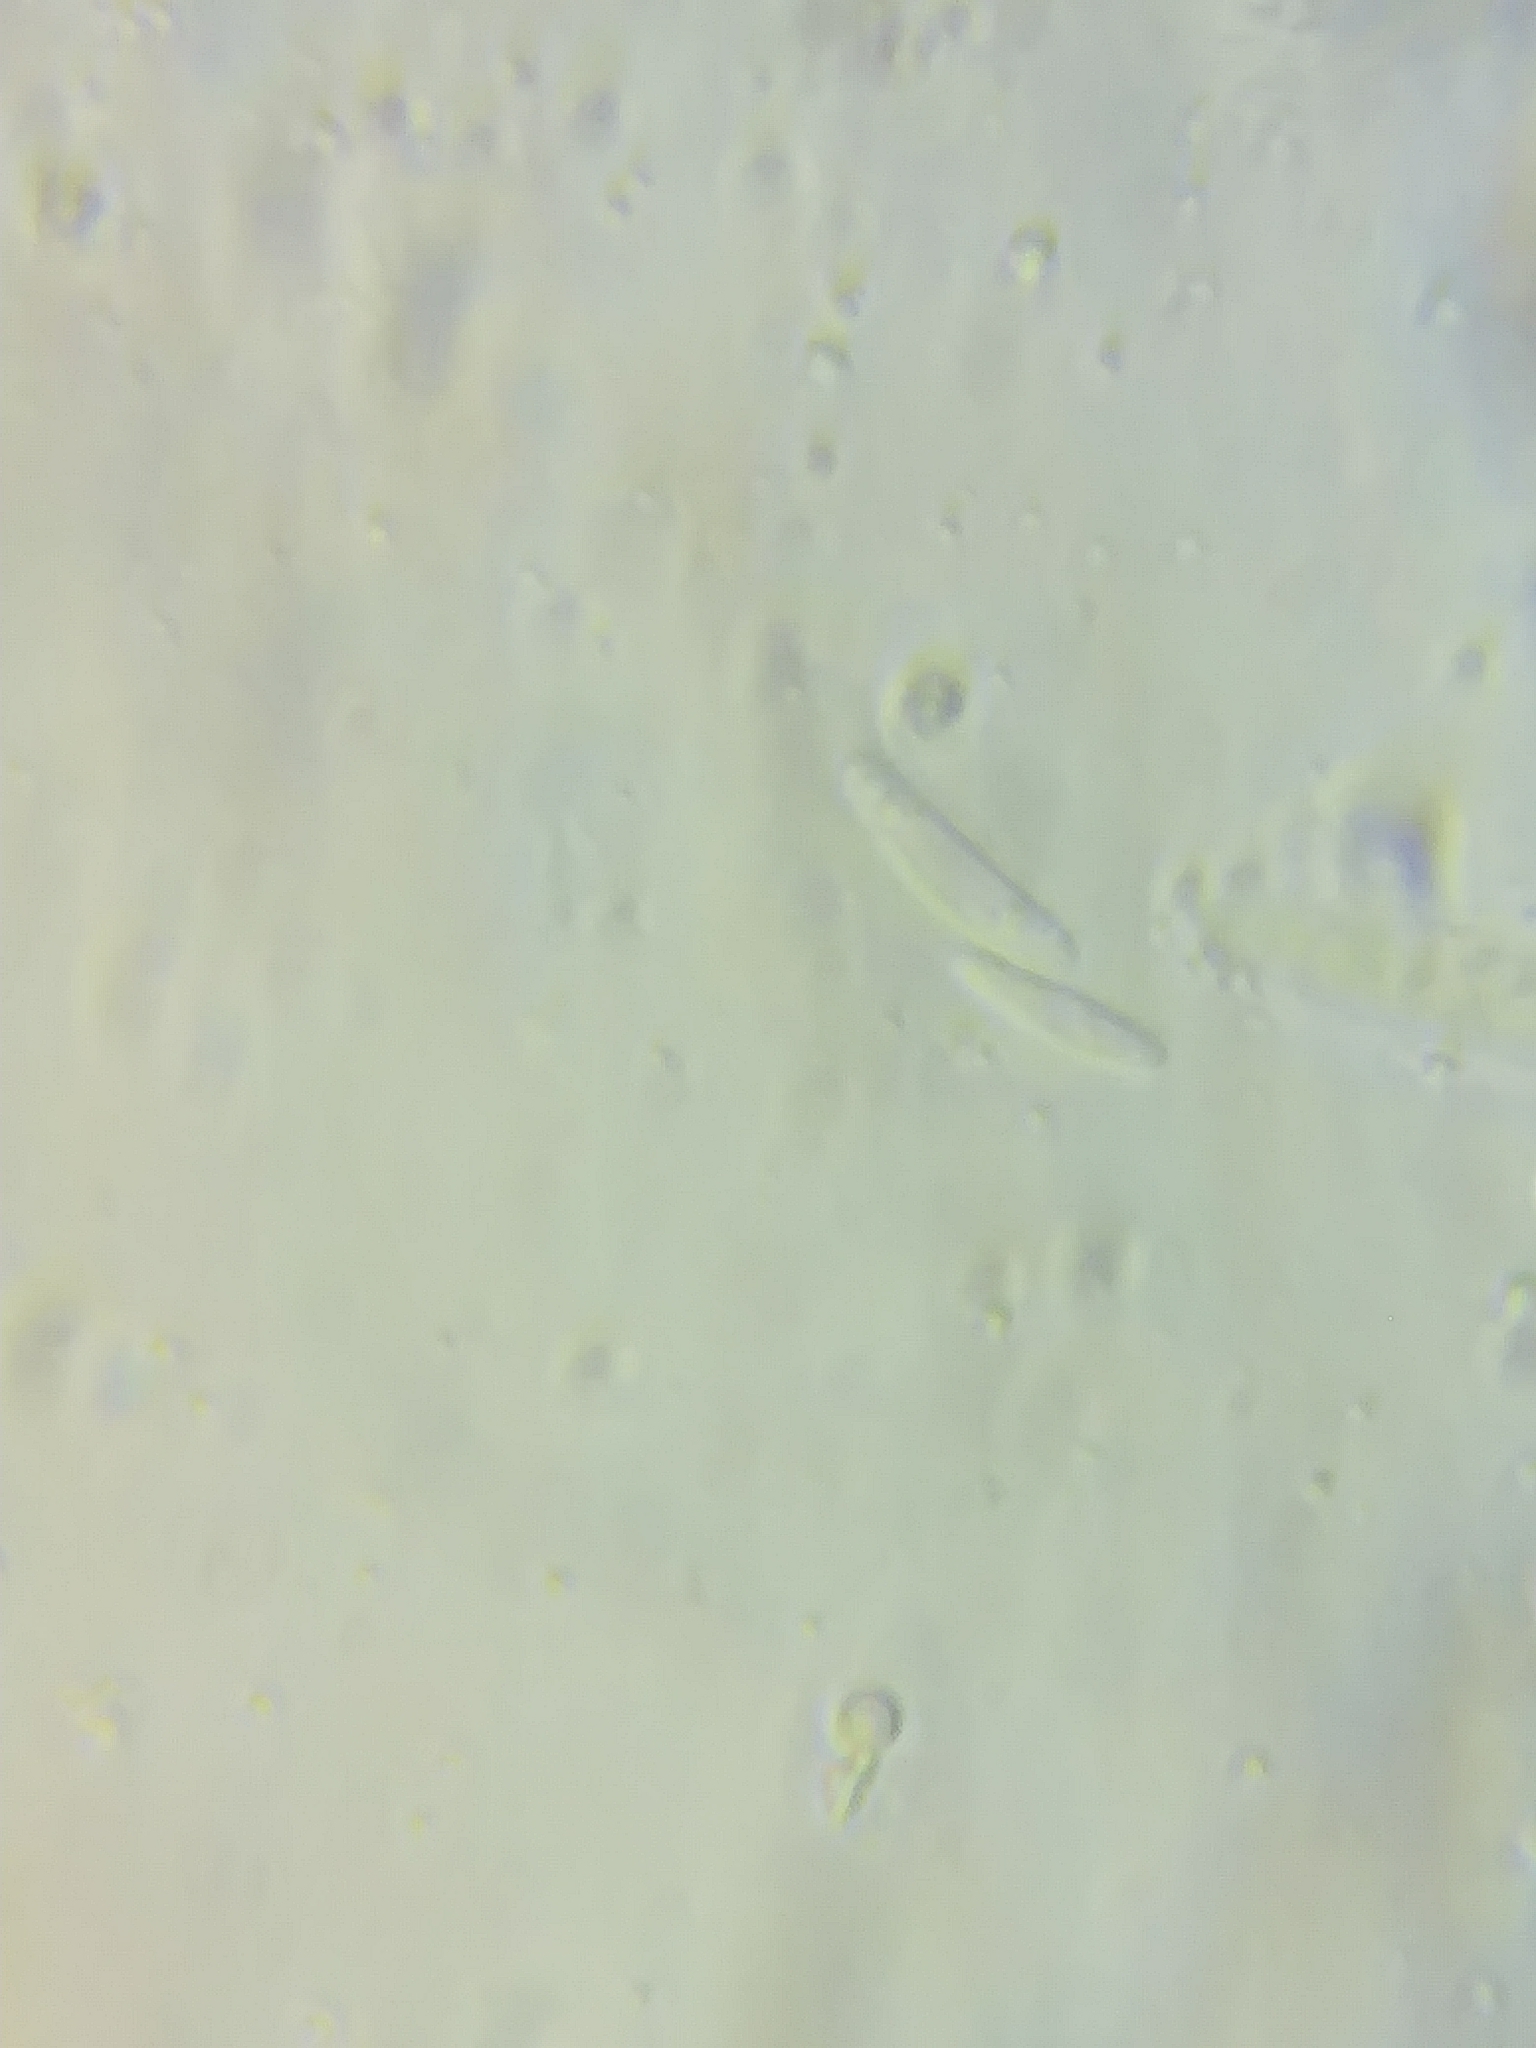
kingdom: Fungi
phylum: Ascomycota
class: Leotiomycetes
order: Helotiales
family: Chlorociboriaceae
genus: Chlorociboria
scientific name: Chlorociboria aeruginosa
